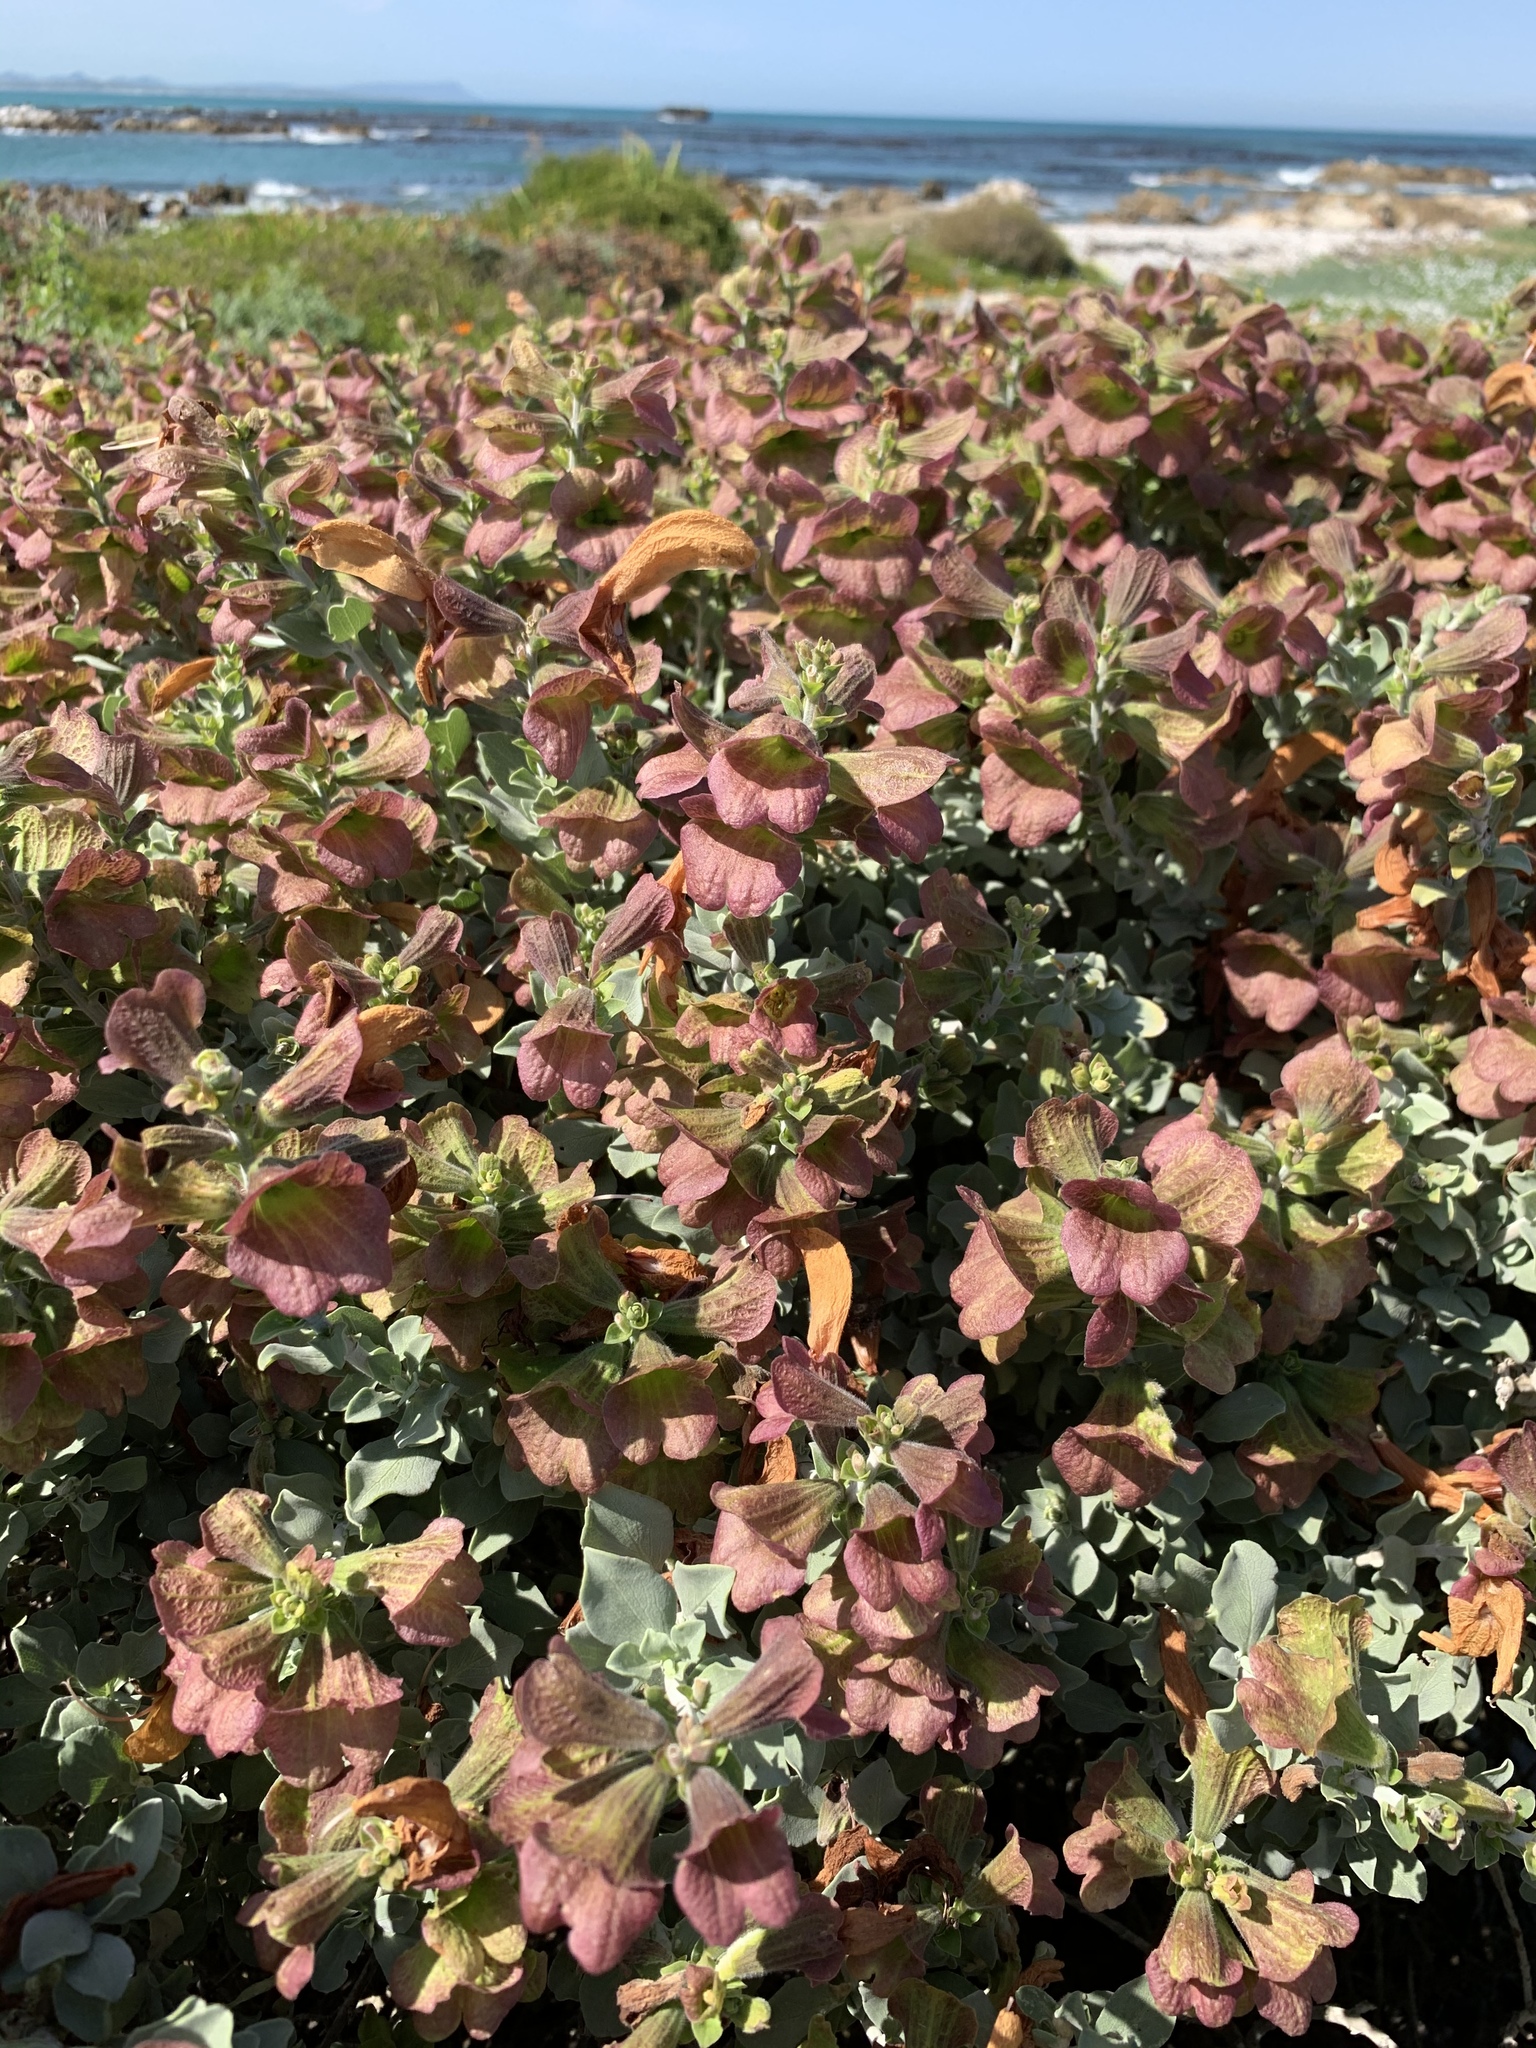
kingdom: Plantae
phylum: Tracheophyta
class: Magnoliopsida
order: Lamiales
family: Lamiaceae
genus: Salvia
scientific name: Salvia aurea
